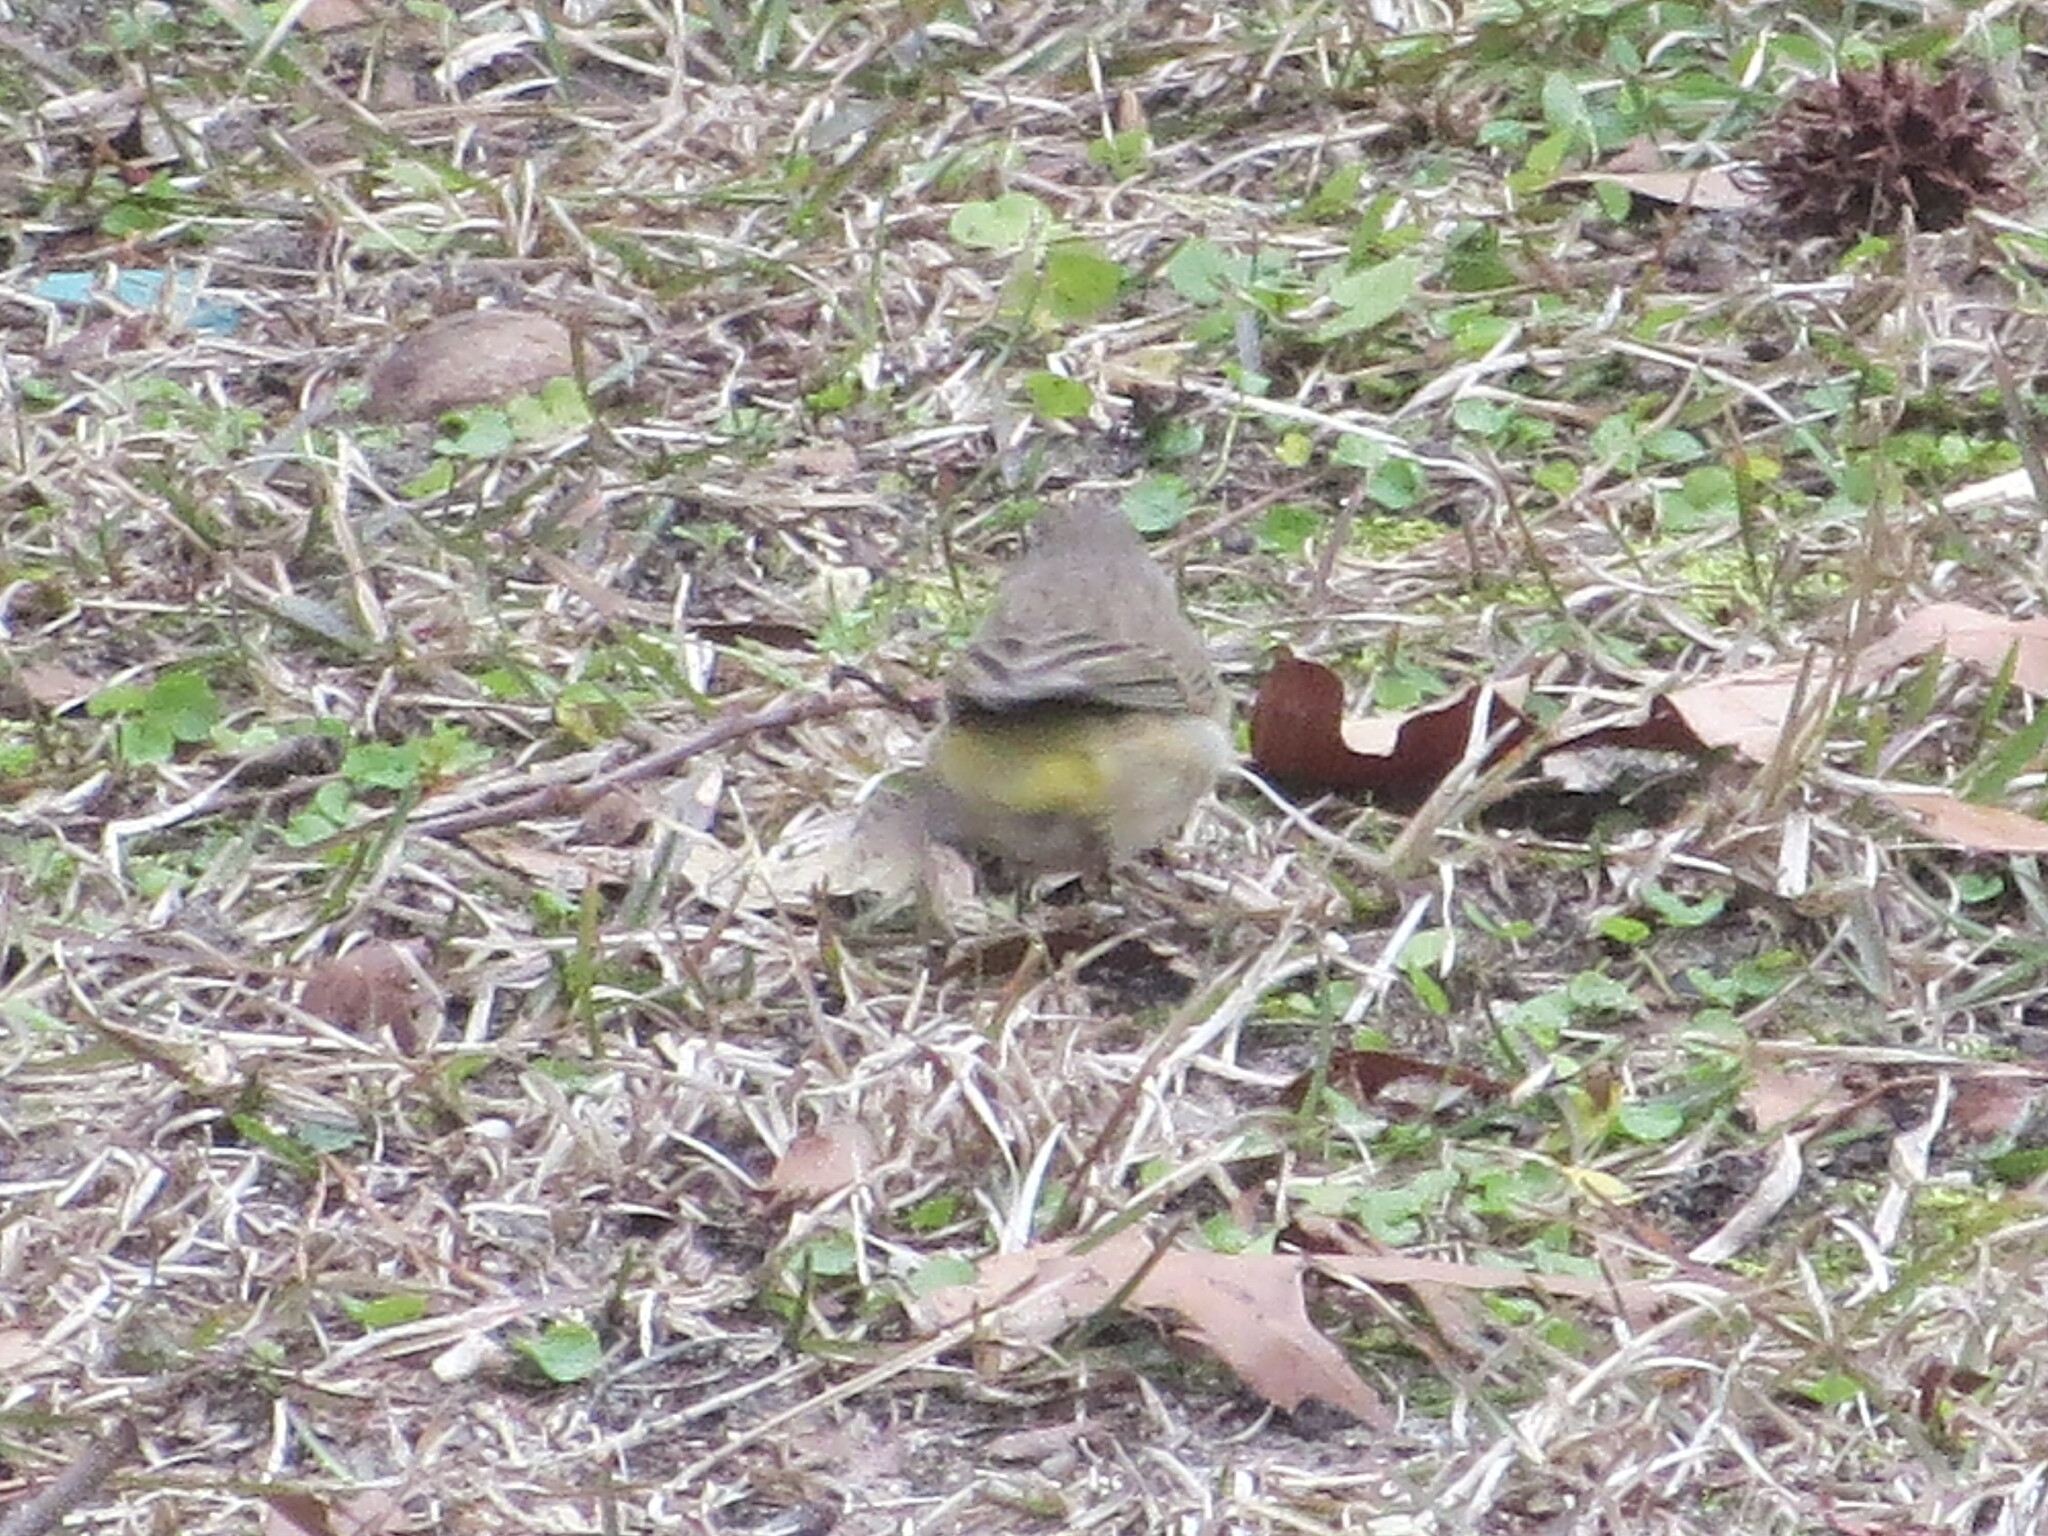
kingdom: Animalia
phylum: Chordata
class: Aves
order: Passeriformes
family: Parulidae
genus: Setophaga
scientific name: Setophaga palmarum
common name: Palm warbler
